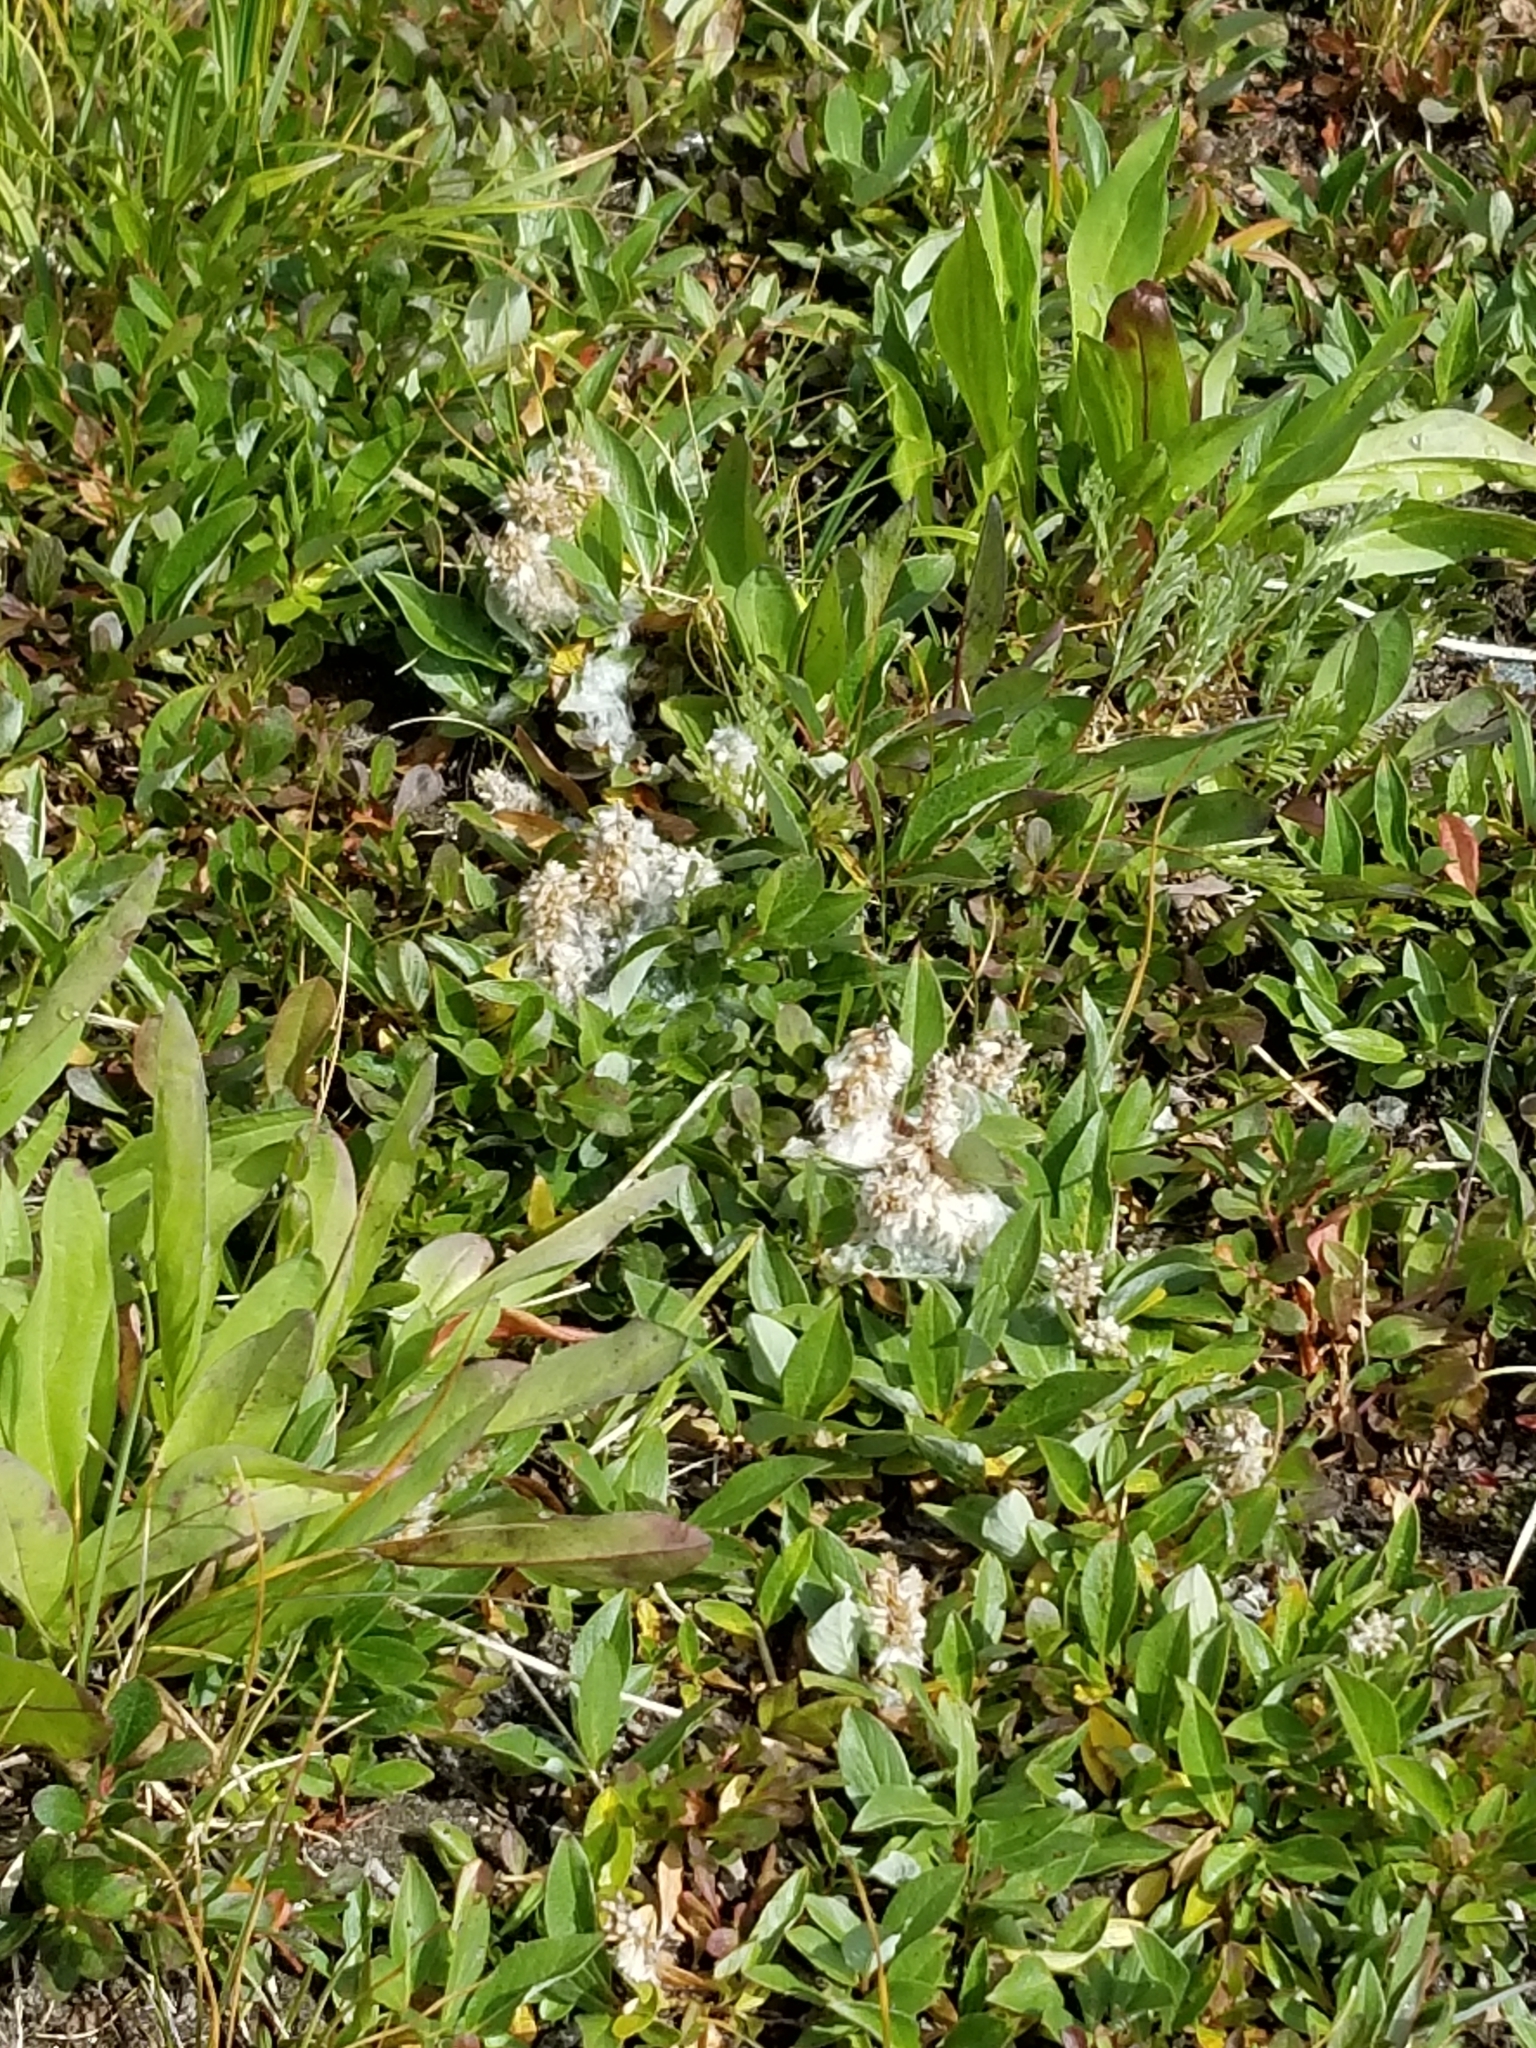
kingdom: Plantae
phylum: Tracheophyta
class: Magnoliopsida
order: Malpighiales
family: Salicaceae
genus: Salix
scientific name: Salix petrophila
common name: Rocky mountain willow
